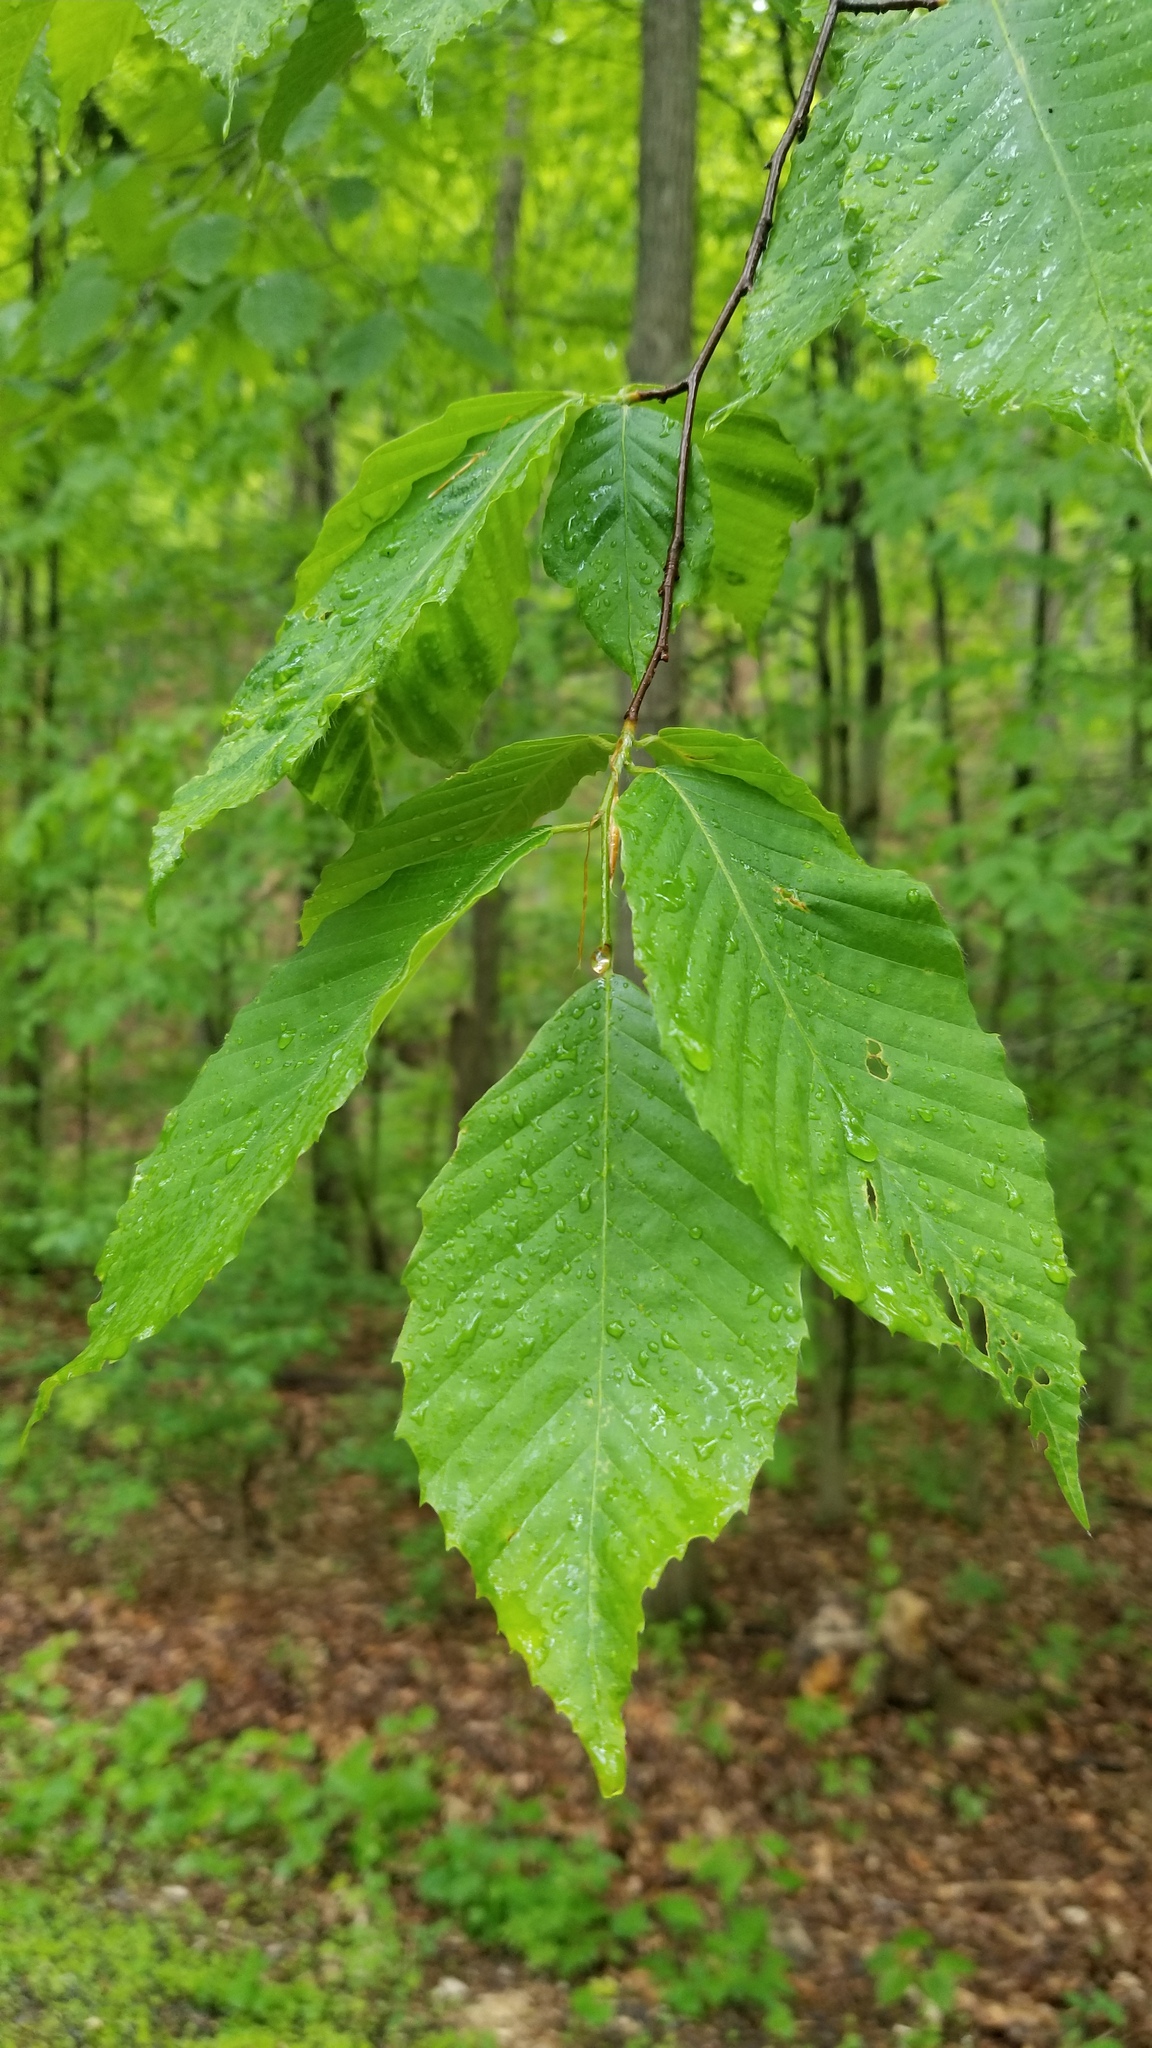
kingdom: Plantae
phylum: Tracheophyta
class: Magnoliopsida
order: Fagales
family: Fagaceae
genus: Fagus
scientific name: Fagus grandifolia
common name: American beech
